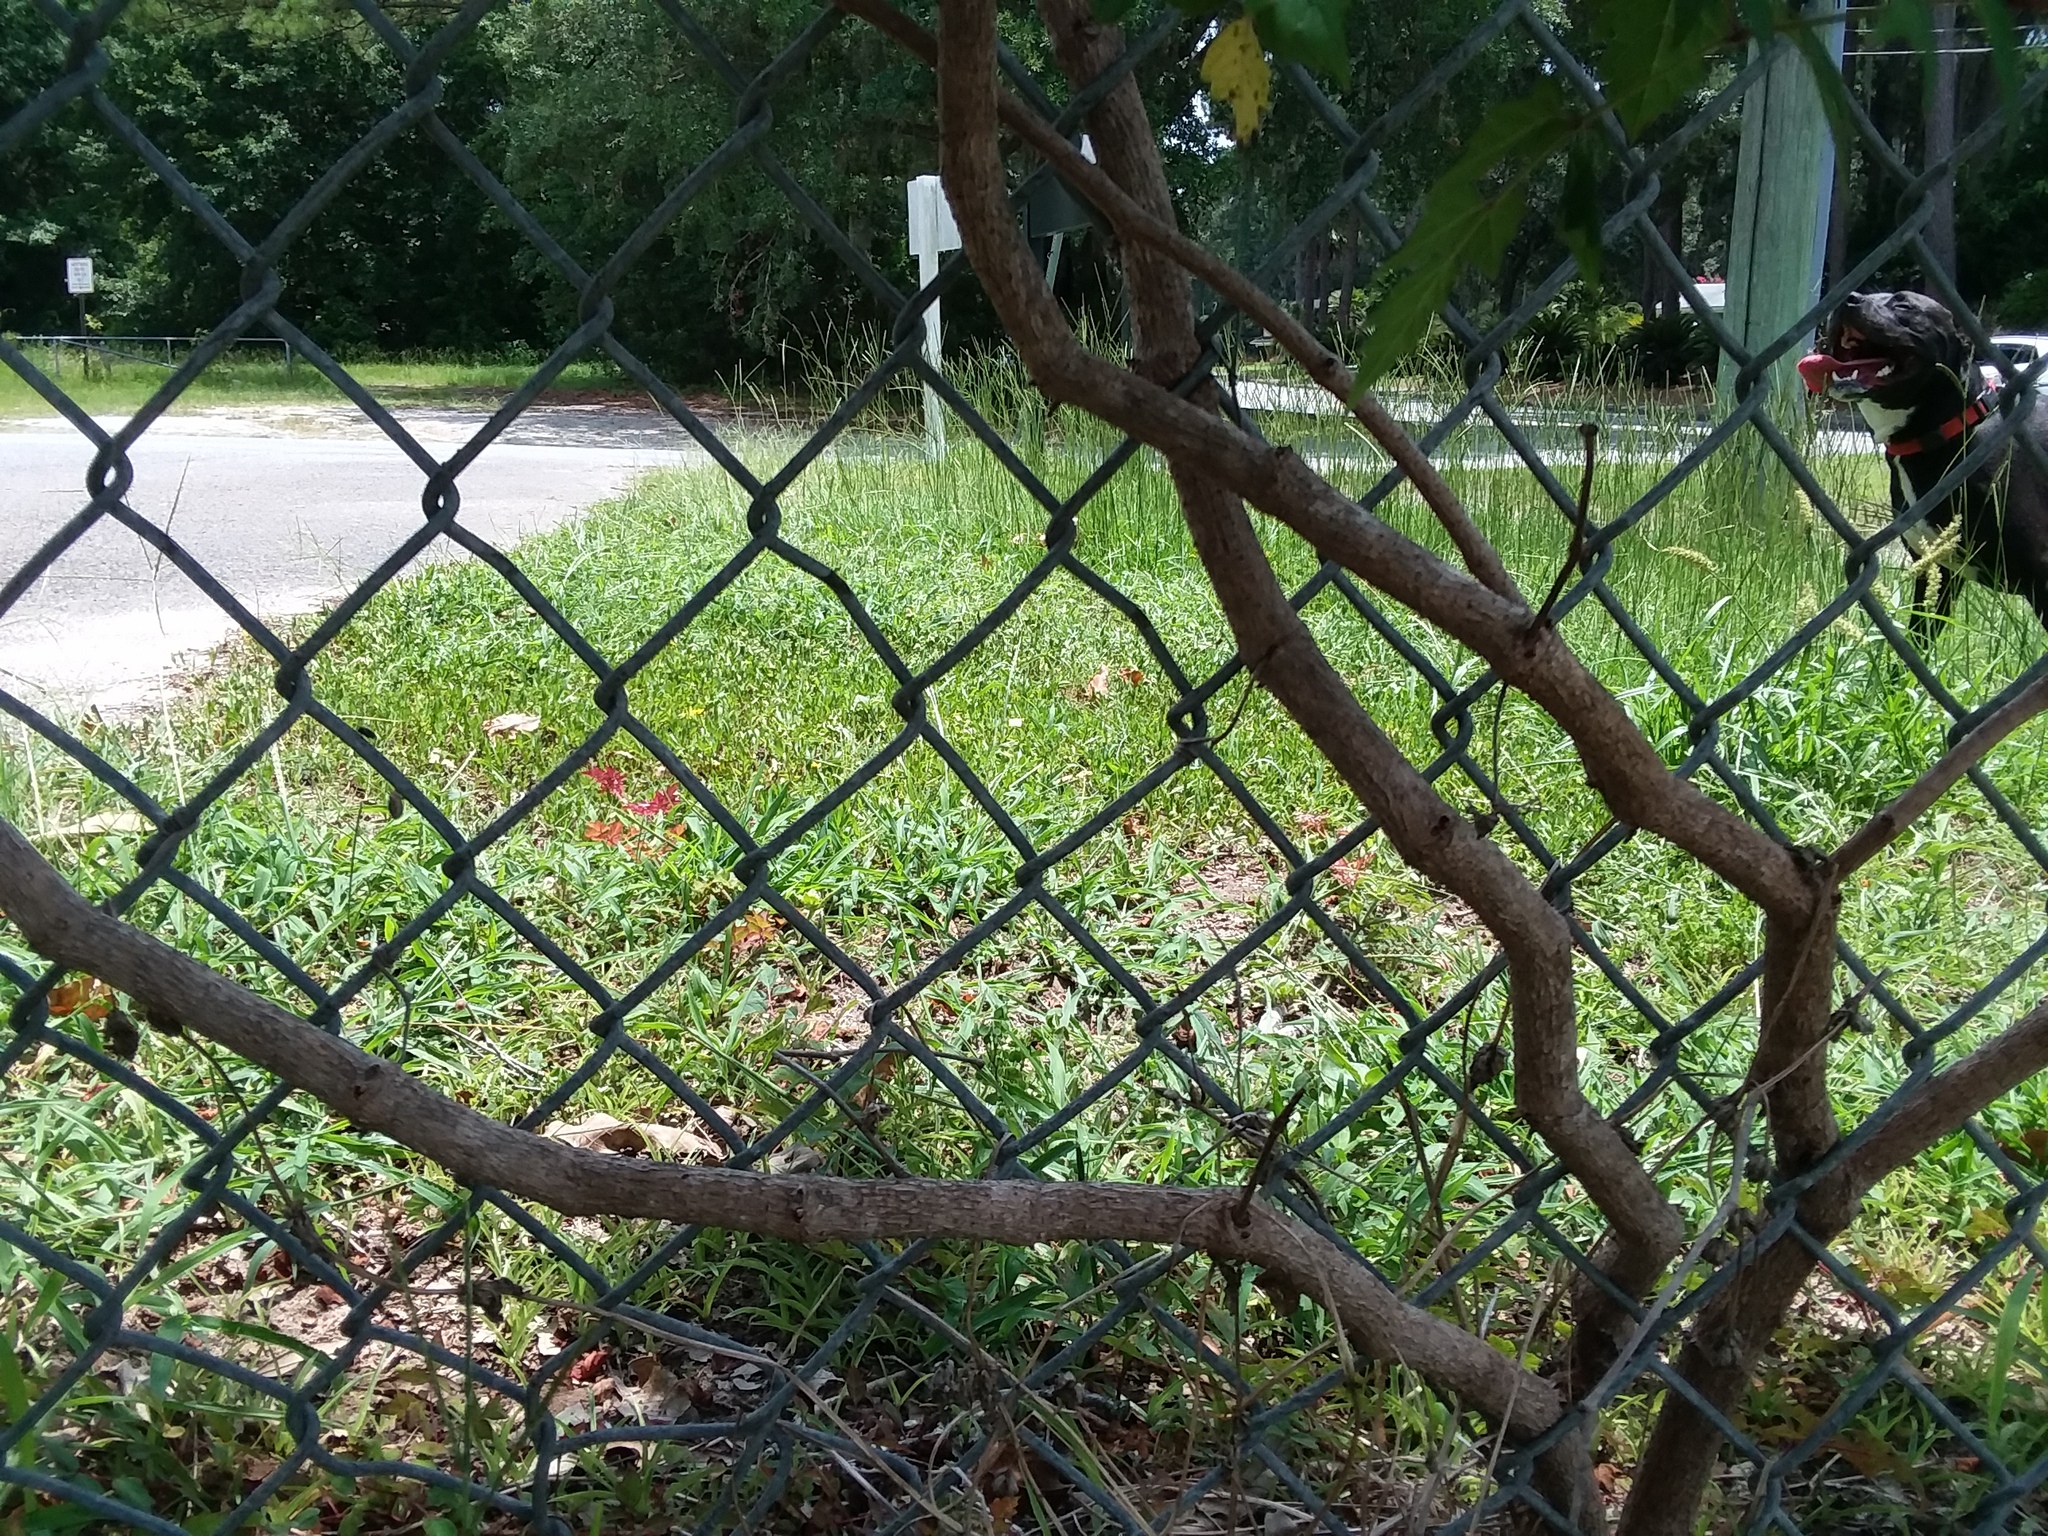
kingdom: Plantae
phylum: Tracheophyta
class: Magnoliopsida
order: Vitales
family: Vitaceae
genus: Nekemias
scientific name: Nekemias arborea
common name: Peppervine
